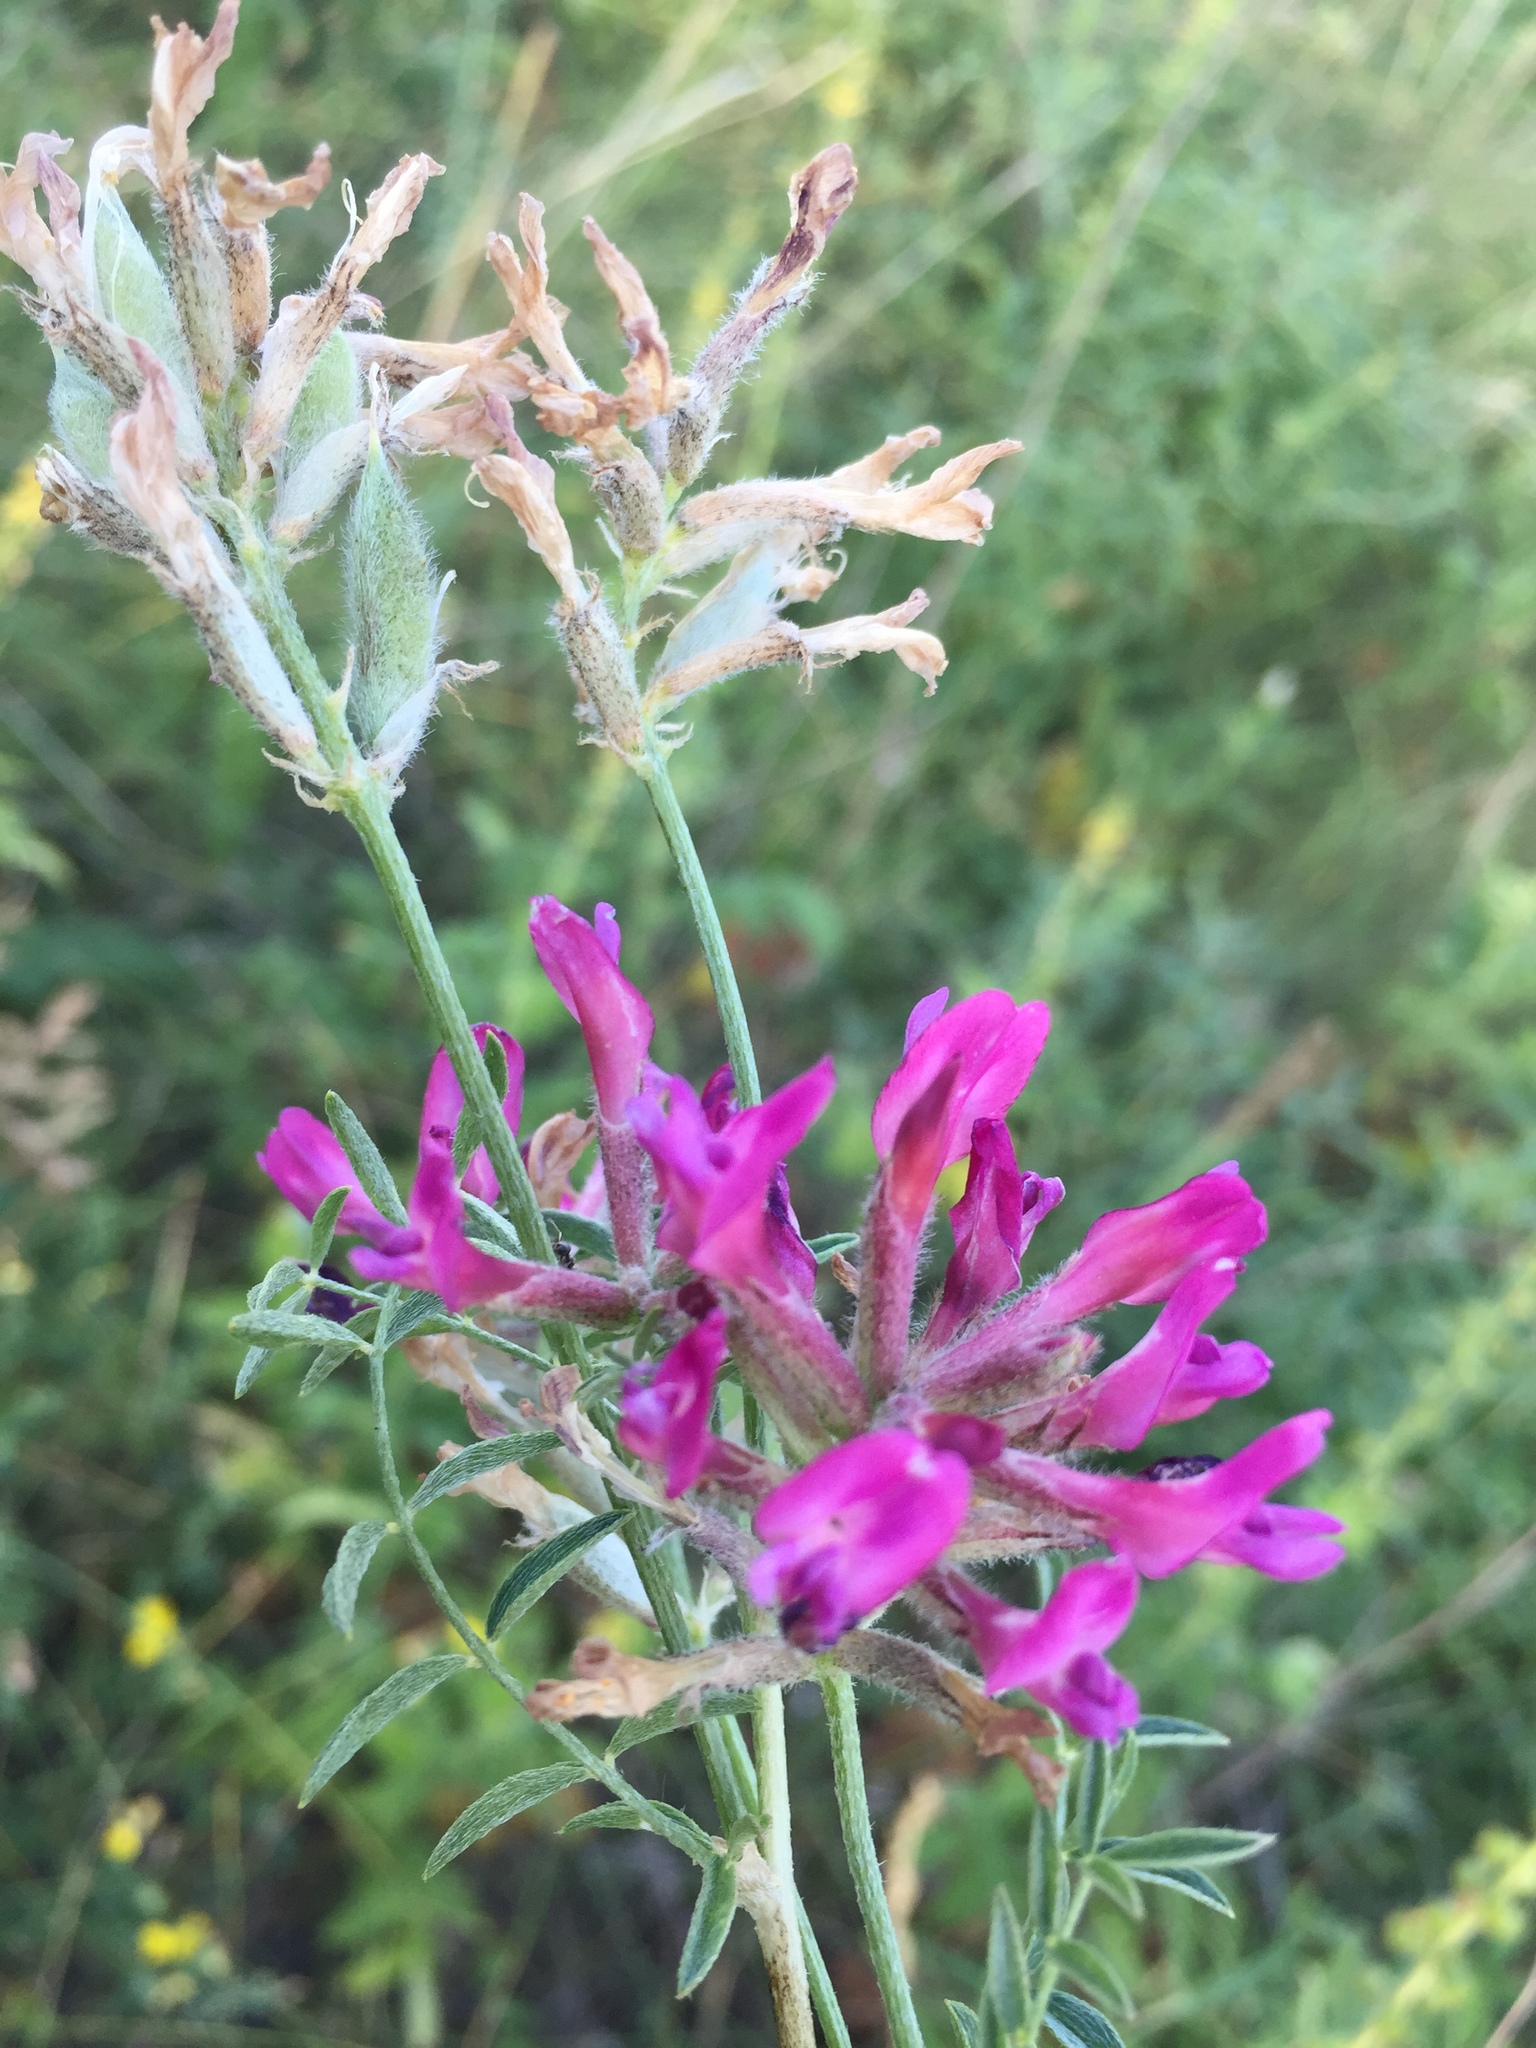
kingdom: Plantae
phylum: Tracheophyta
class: Magnoliopsida
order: Fabales
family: Fabaceae
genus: Astragalus
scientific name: Astragalus cornutus
